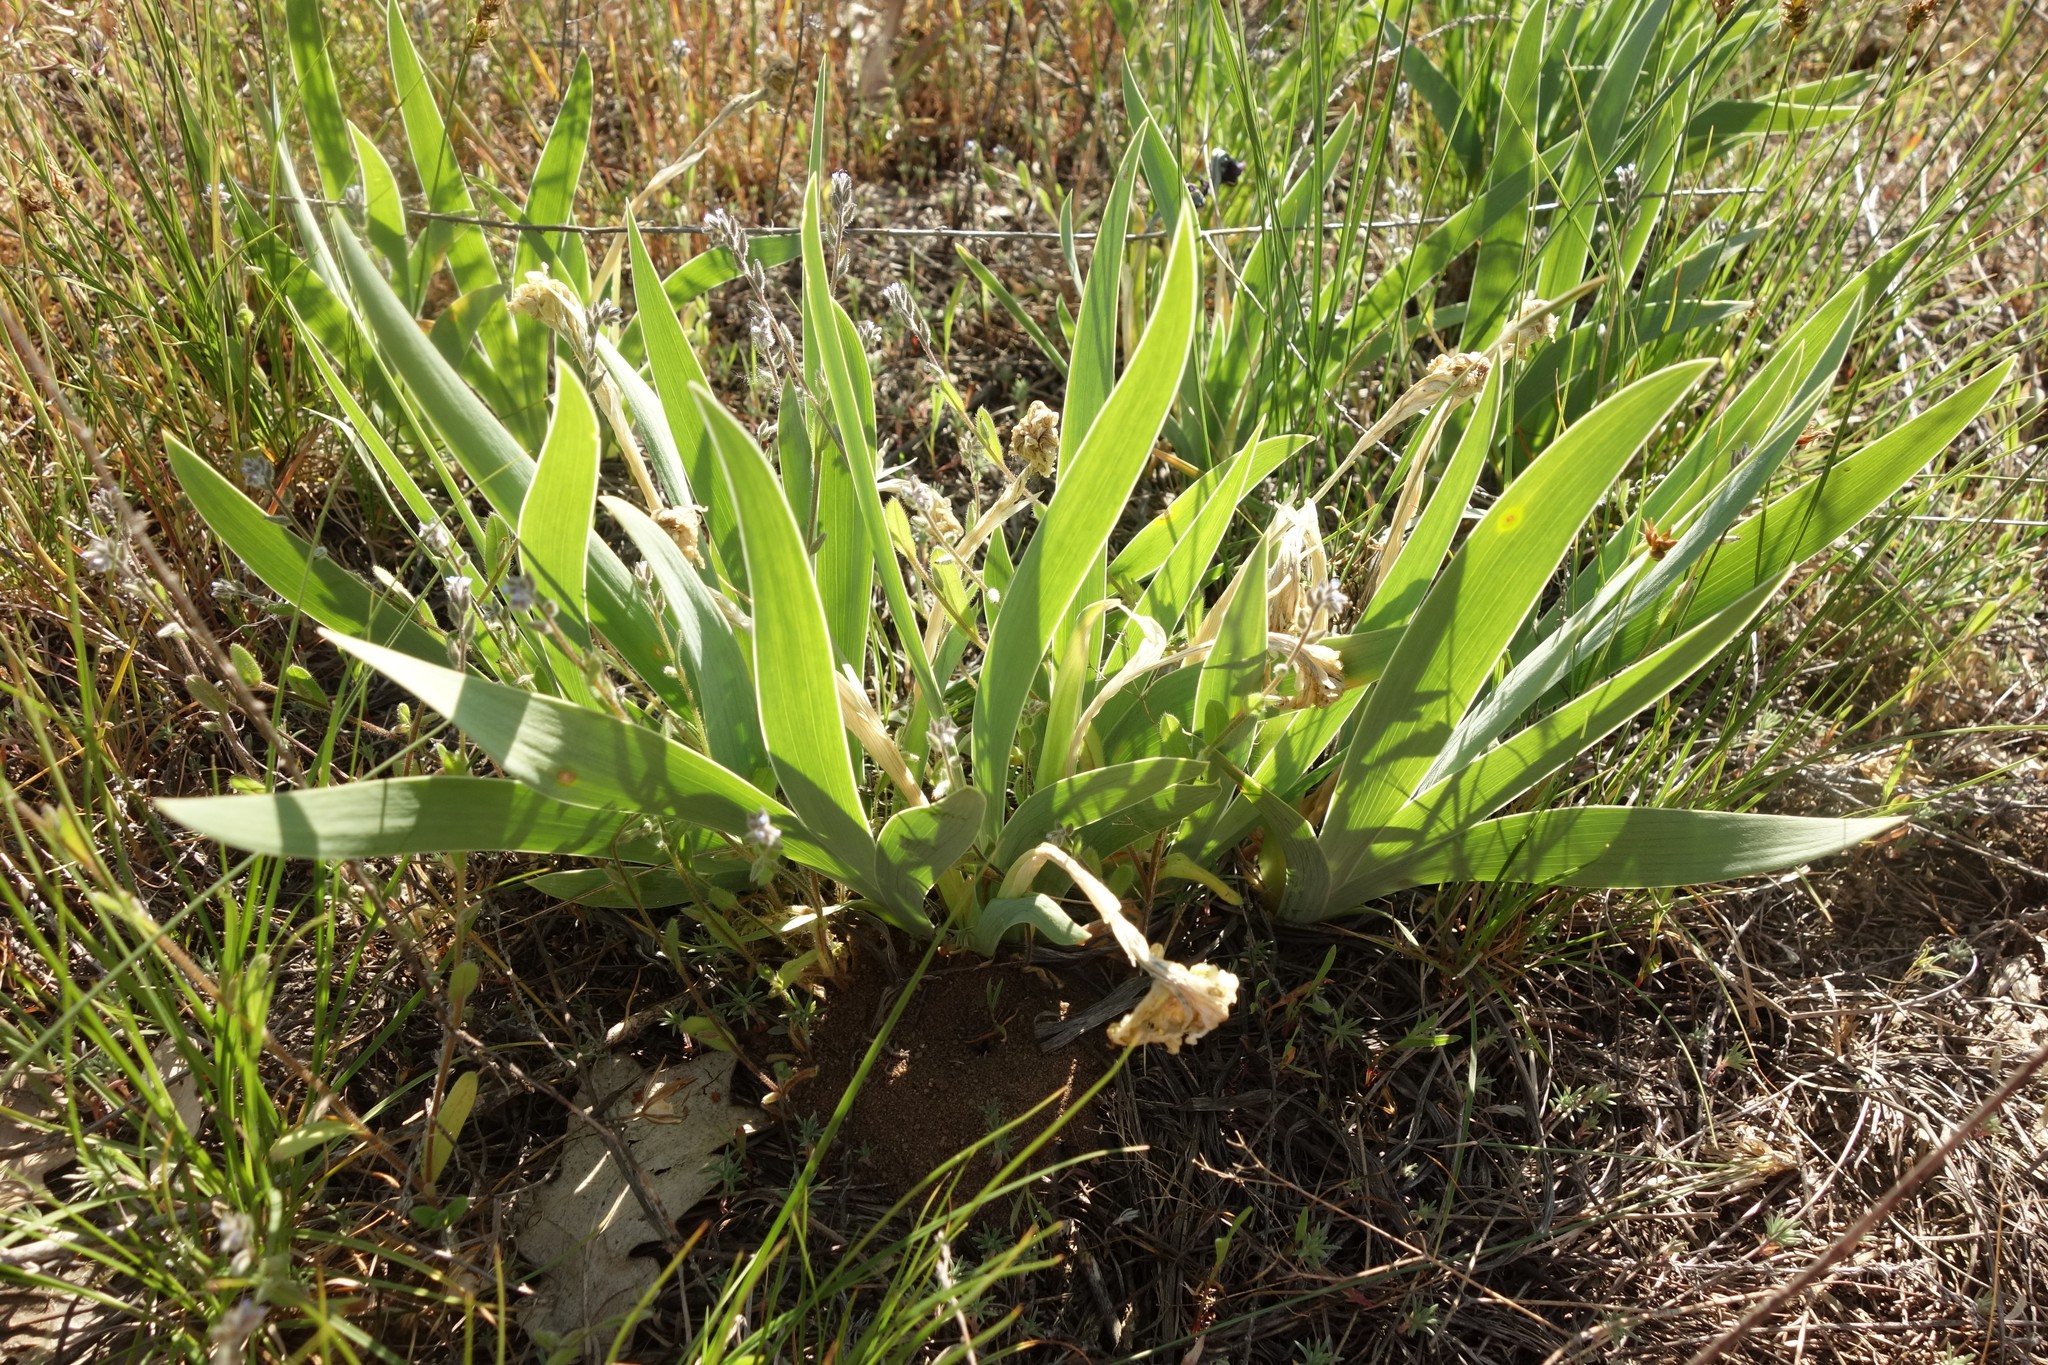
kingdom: Plantae
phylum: Tracheophyta
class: Liliopsida
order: Asparagales
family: Iridaceae
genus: Iris
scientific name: Iris pumila
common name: Dwarf iris
